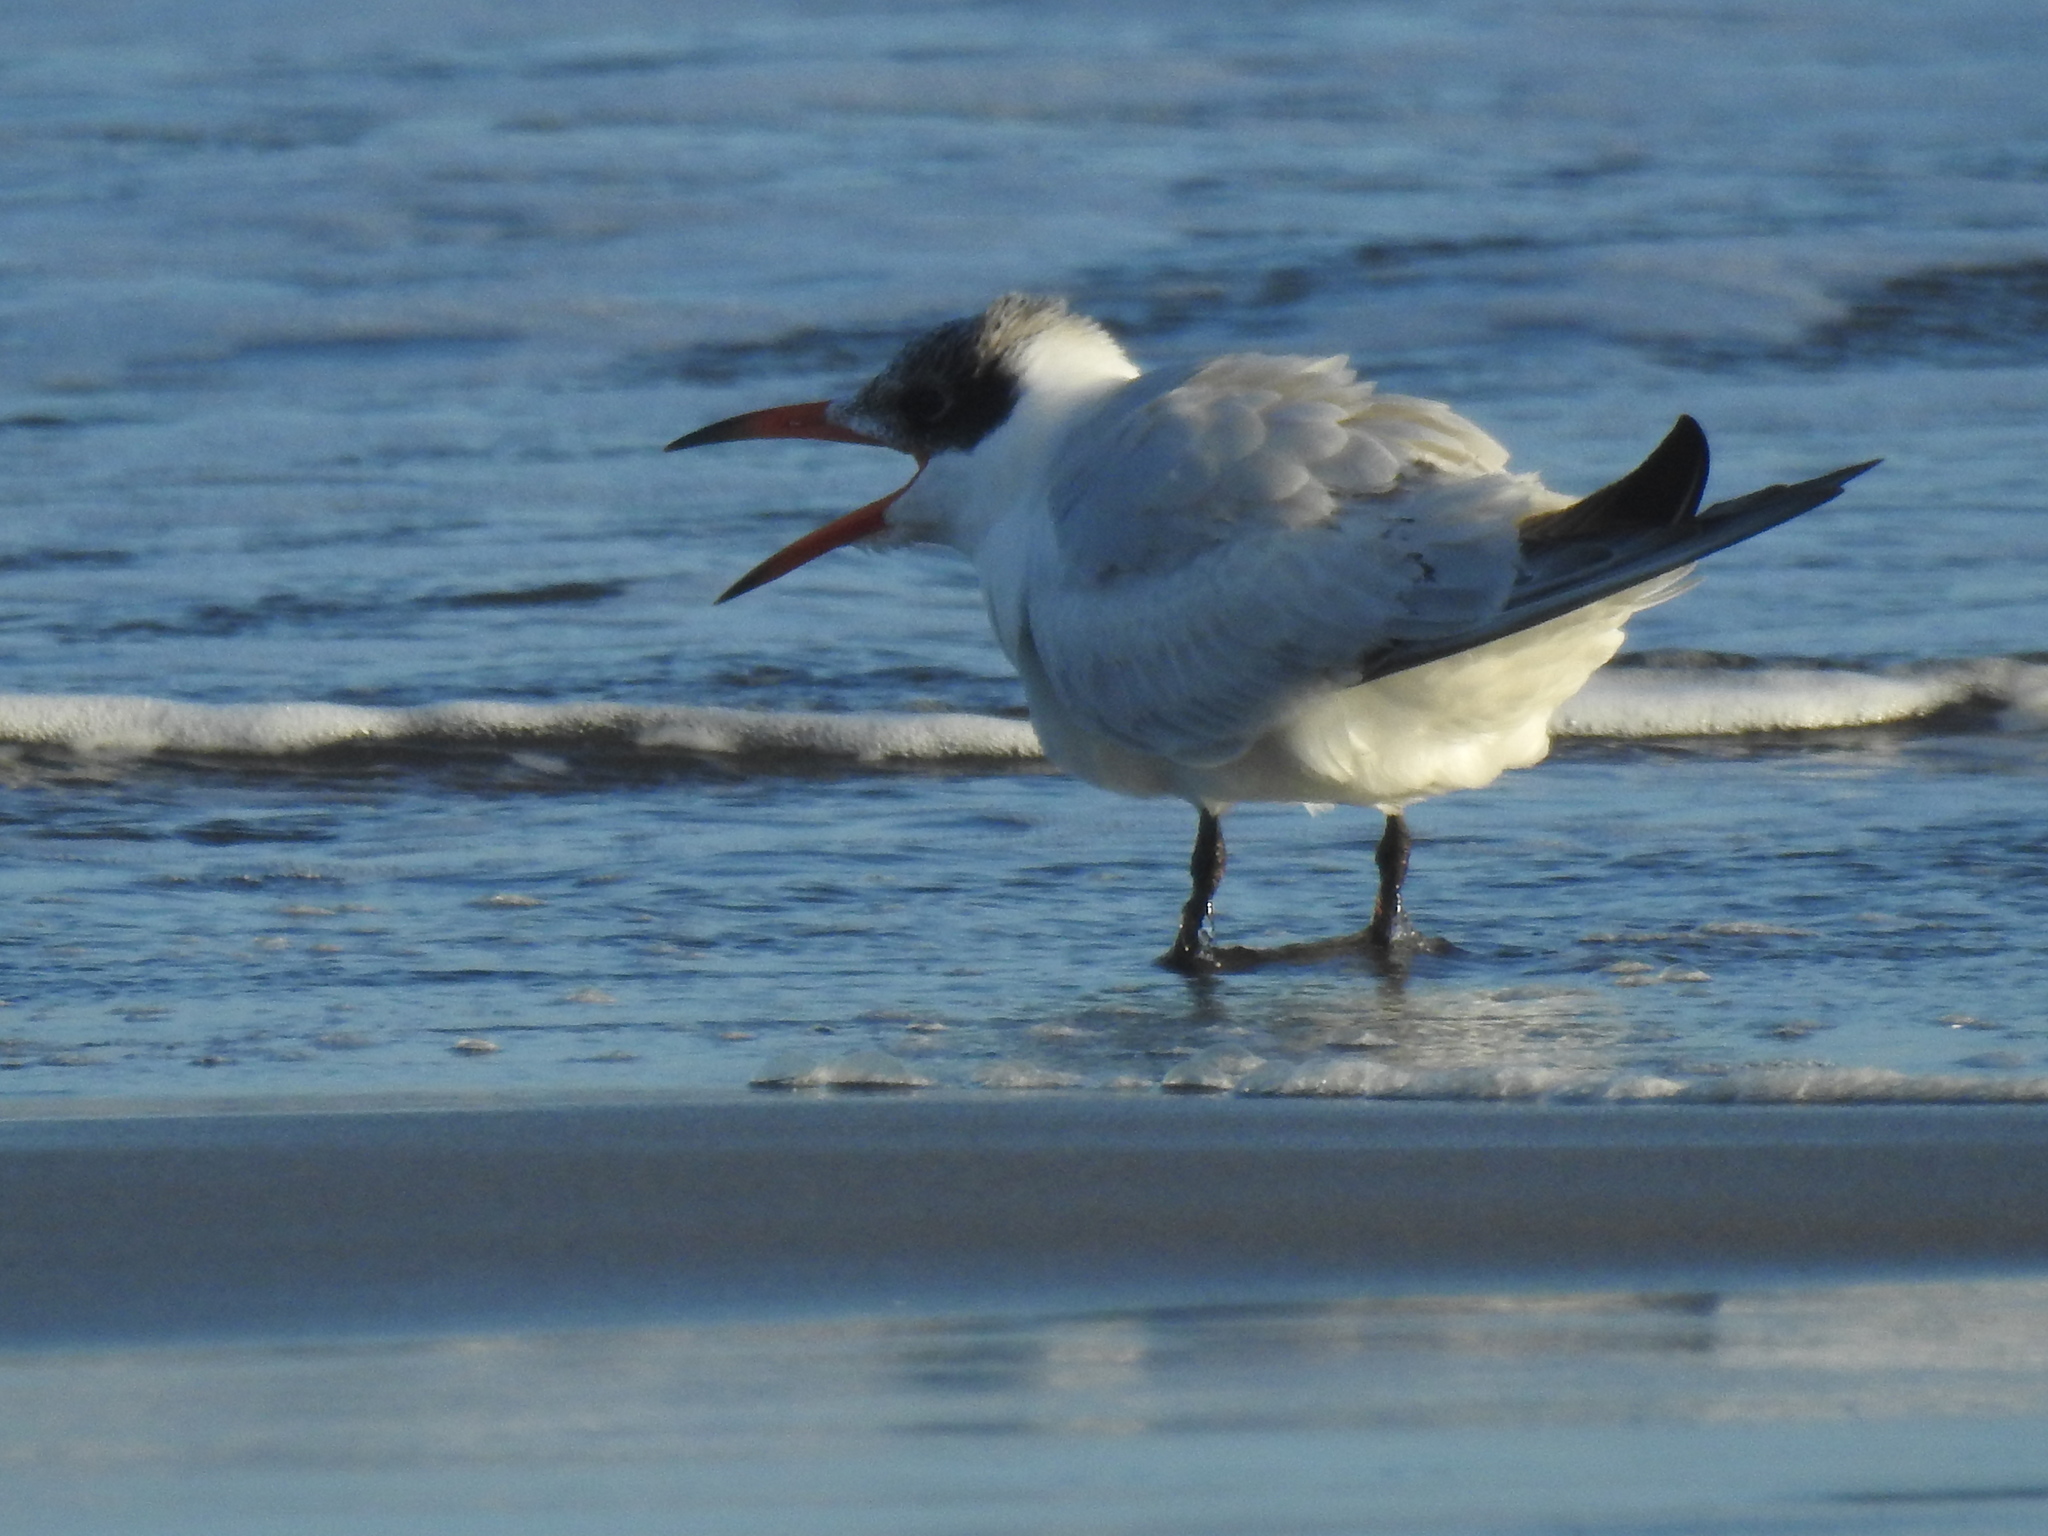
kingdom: Animalia
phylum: Chordata
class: Aves
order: Charadriiformes
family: Laridae
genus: Hydroprogne
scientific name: Hydroprogne caspia
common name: Caspian tern
